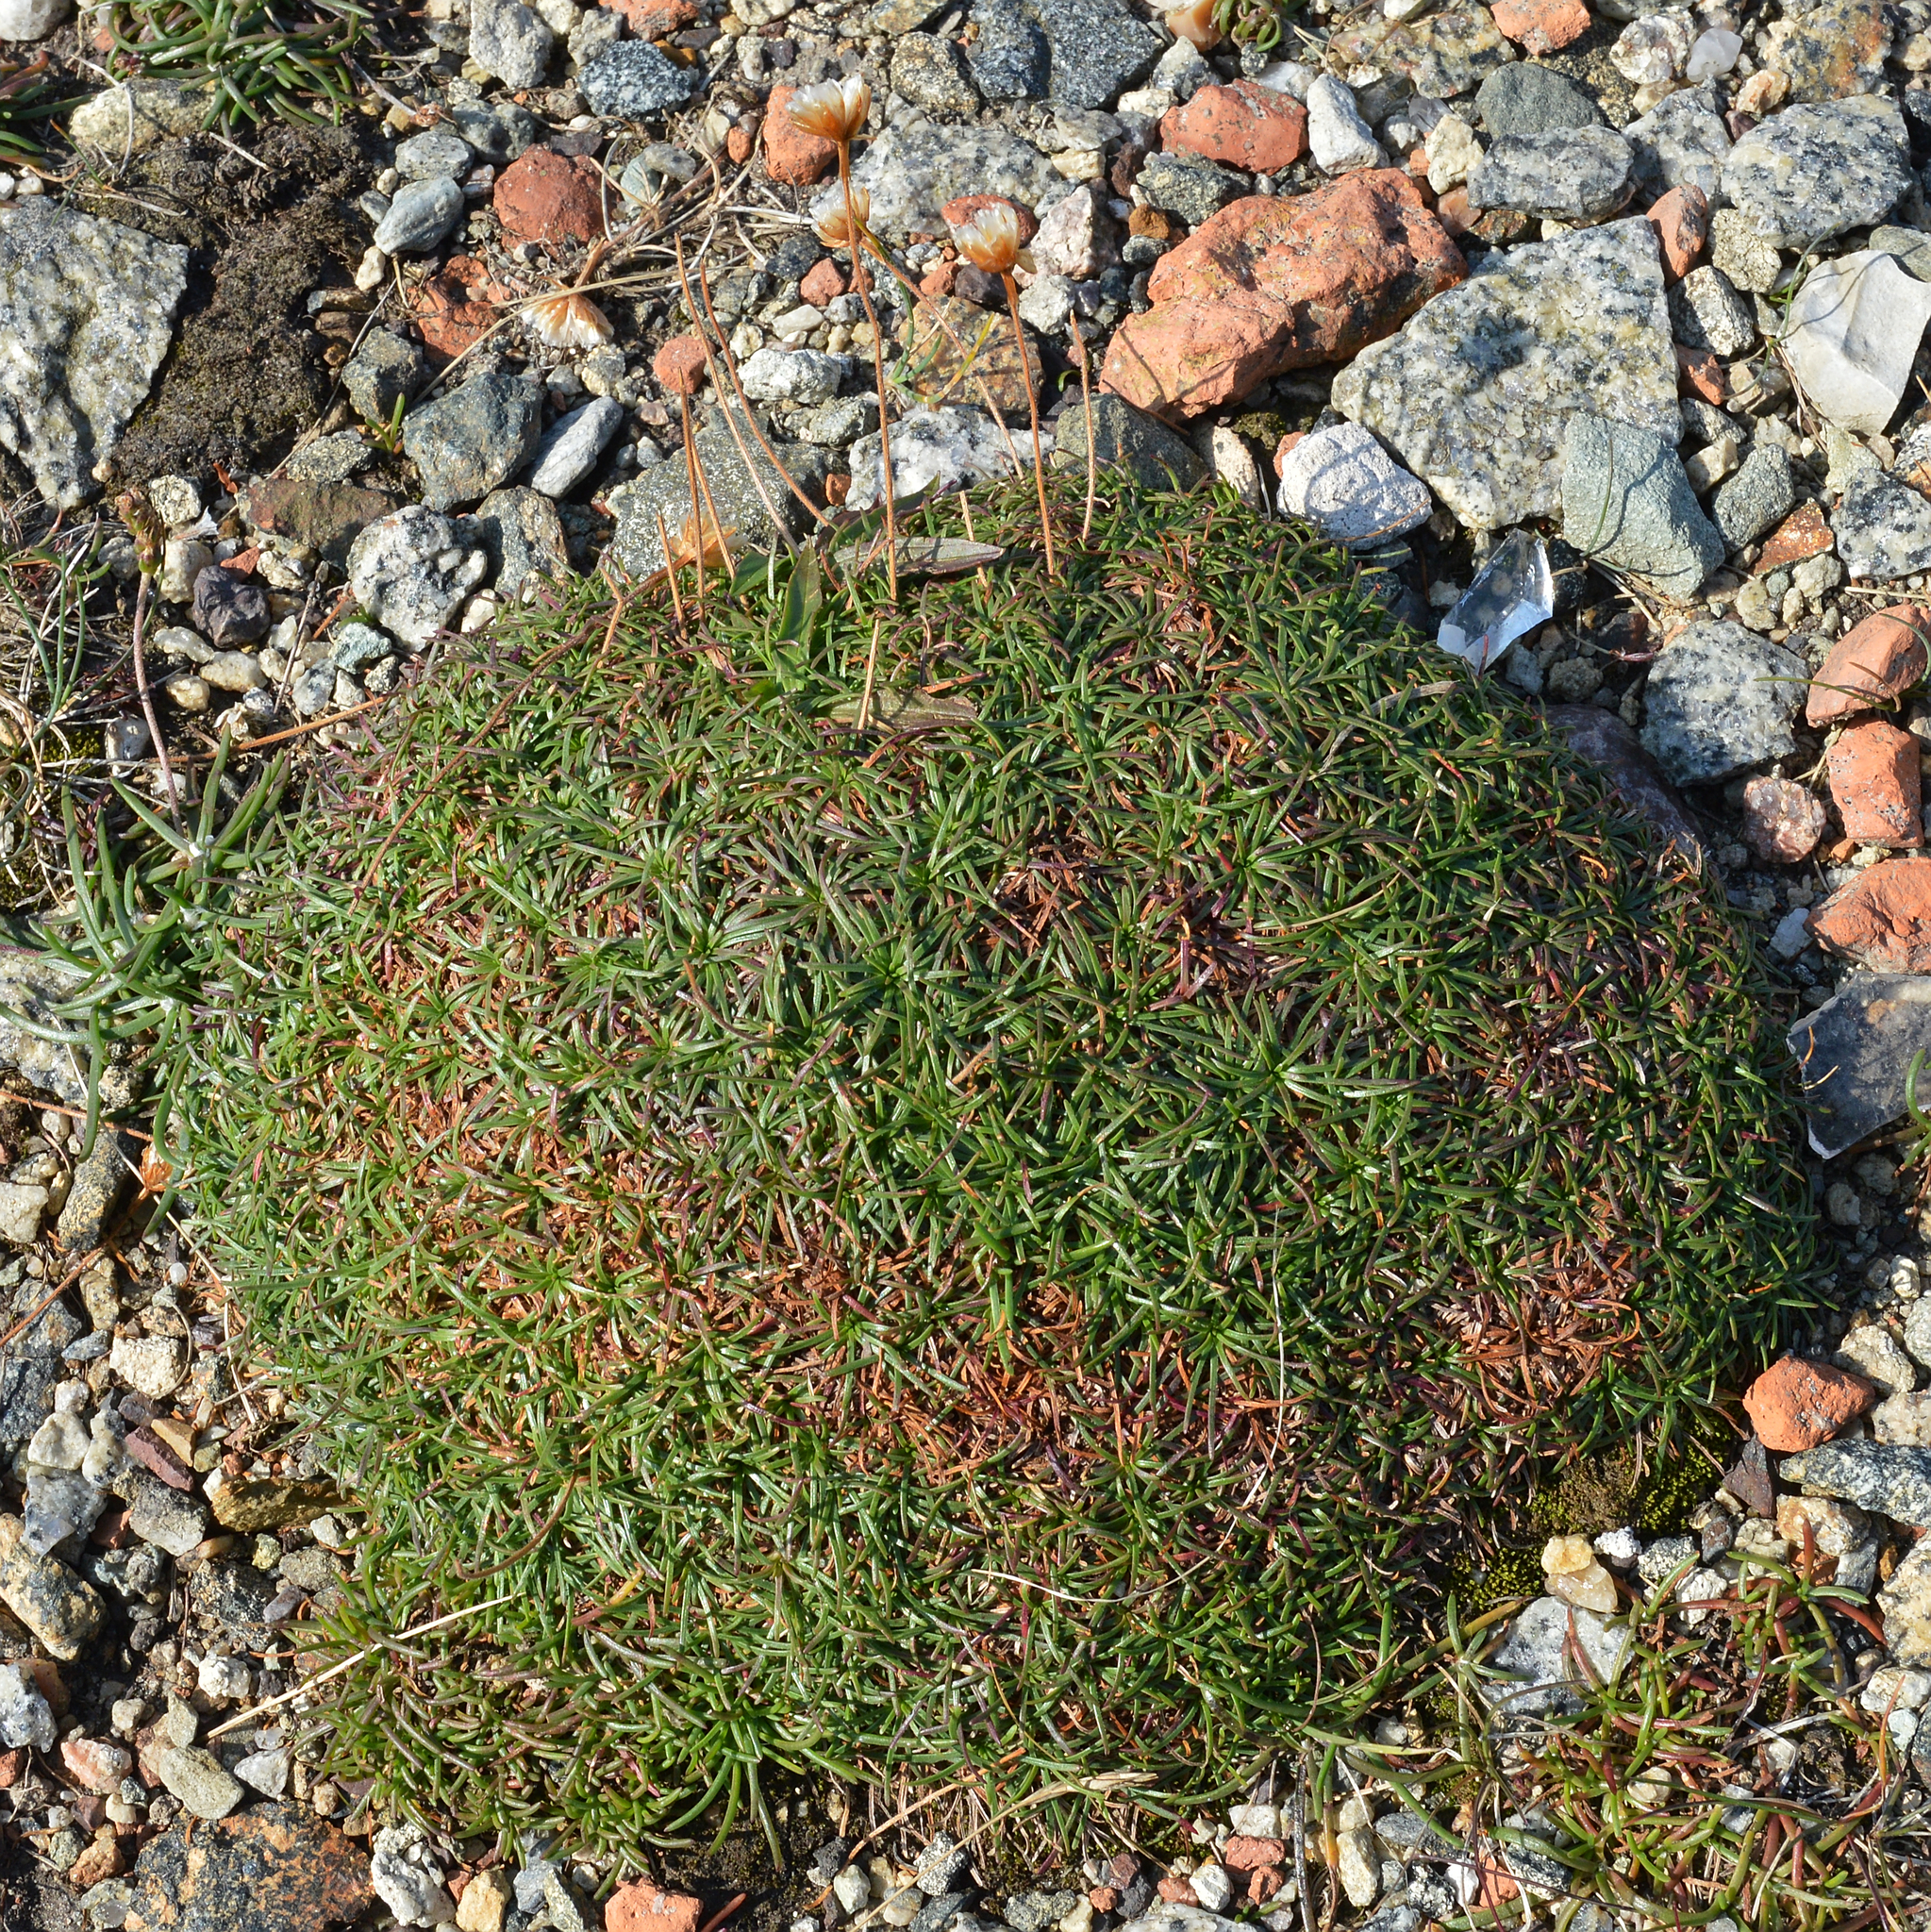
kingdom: Plantae
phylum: Tracheophyta
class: Magnoliopsida
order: Caryophyllales
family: Plumbaginaceae
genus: Armeria
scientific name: Armeria maritima
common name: Thrift
